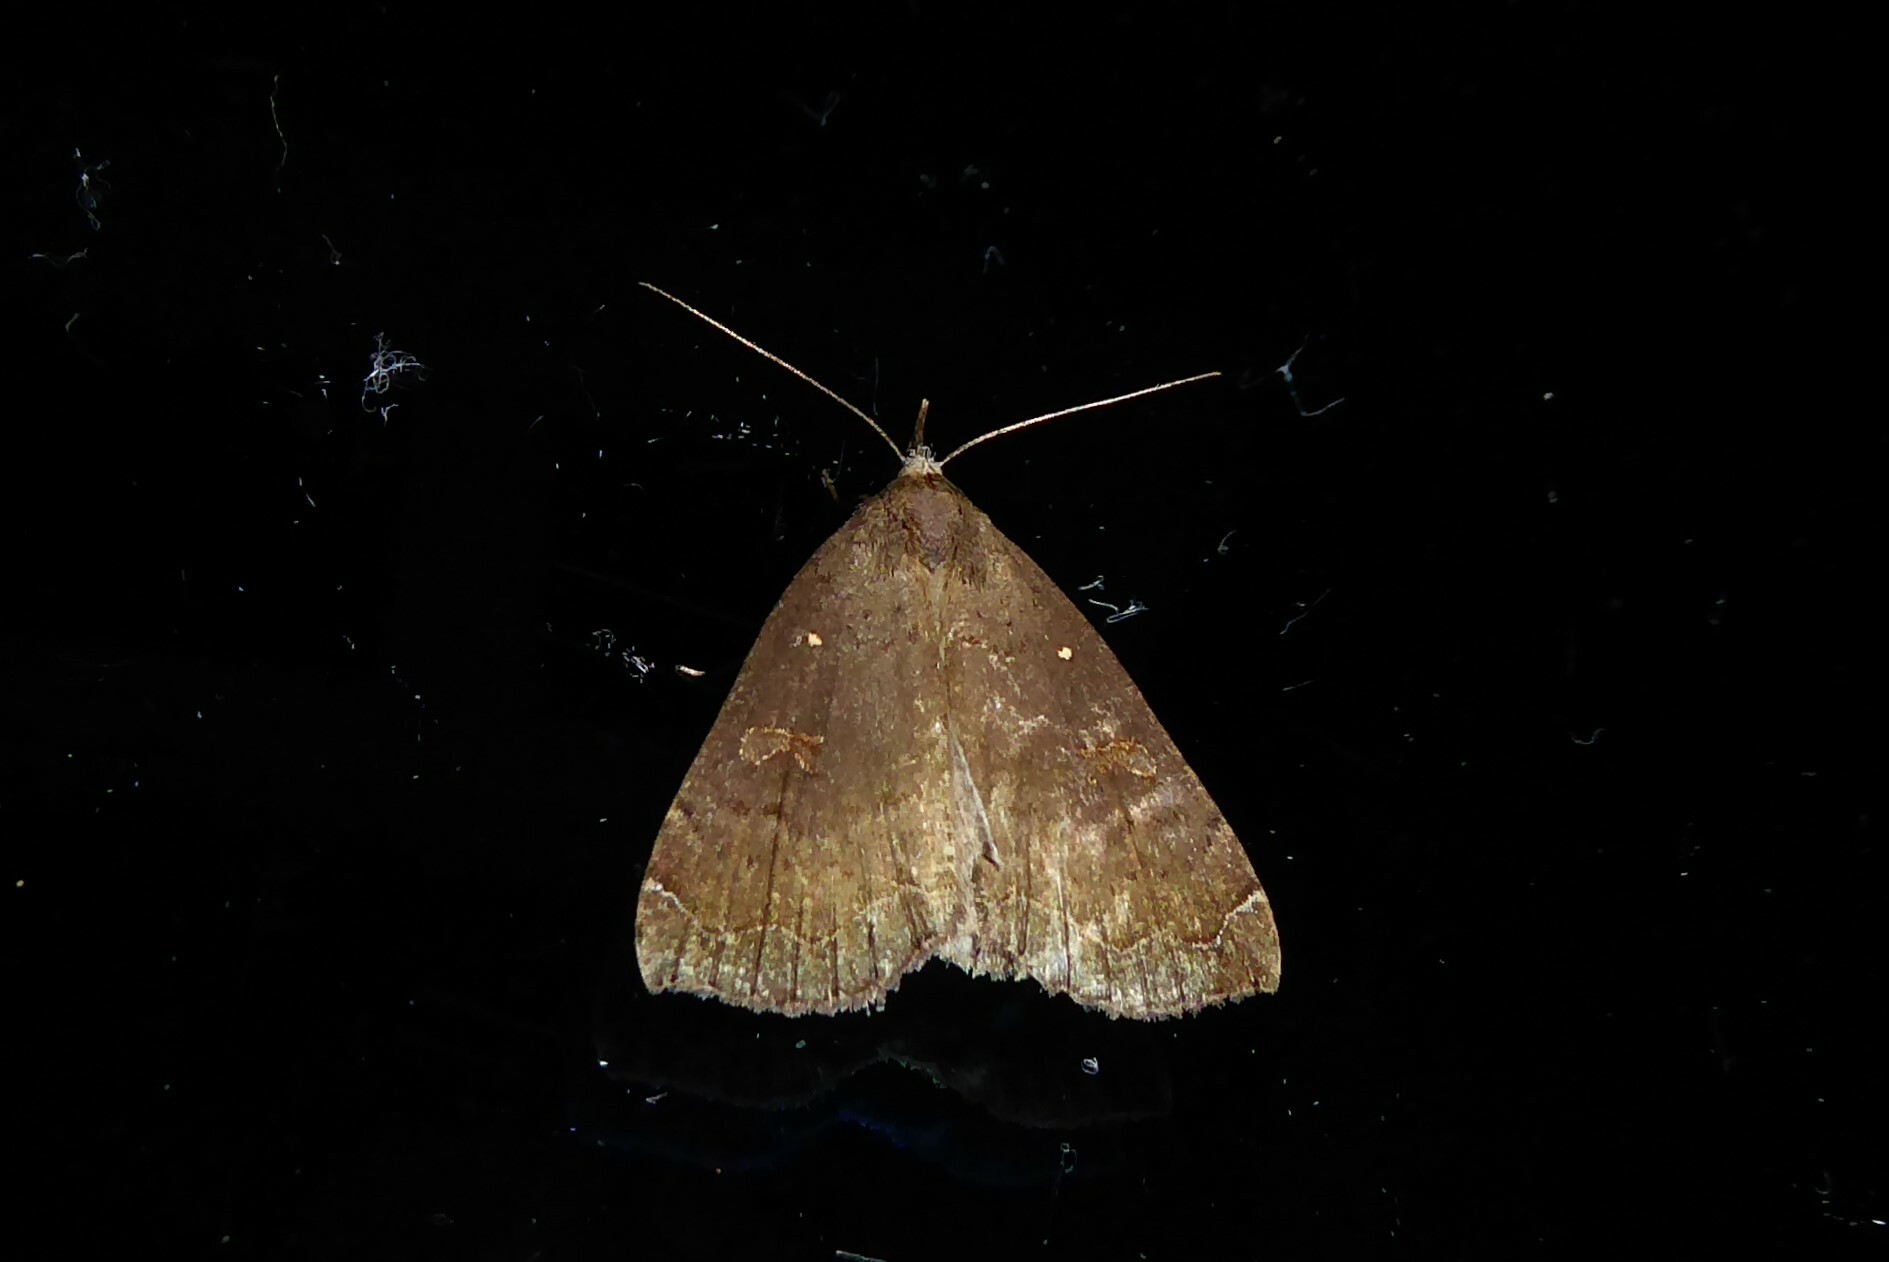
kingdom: Animalia
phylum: Arthropoda
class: Insecta
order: Lepidoptera
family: Erebidae
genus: Rhapsa
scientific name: Rhapsa scotosialis
